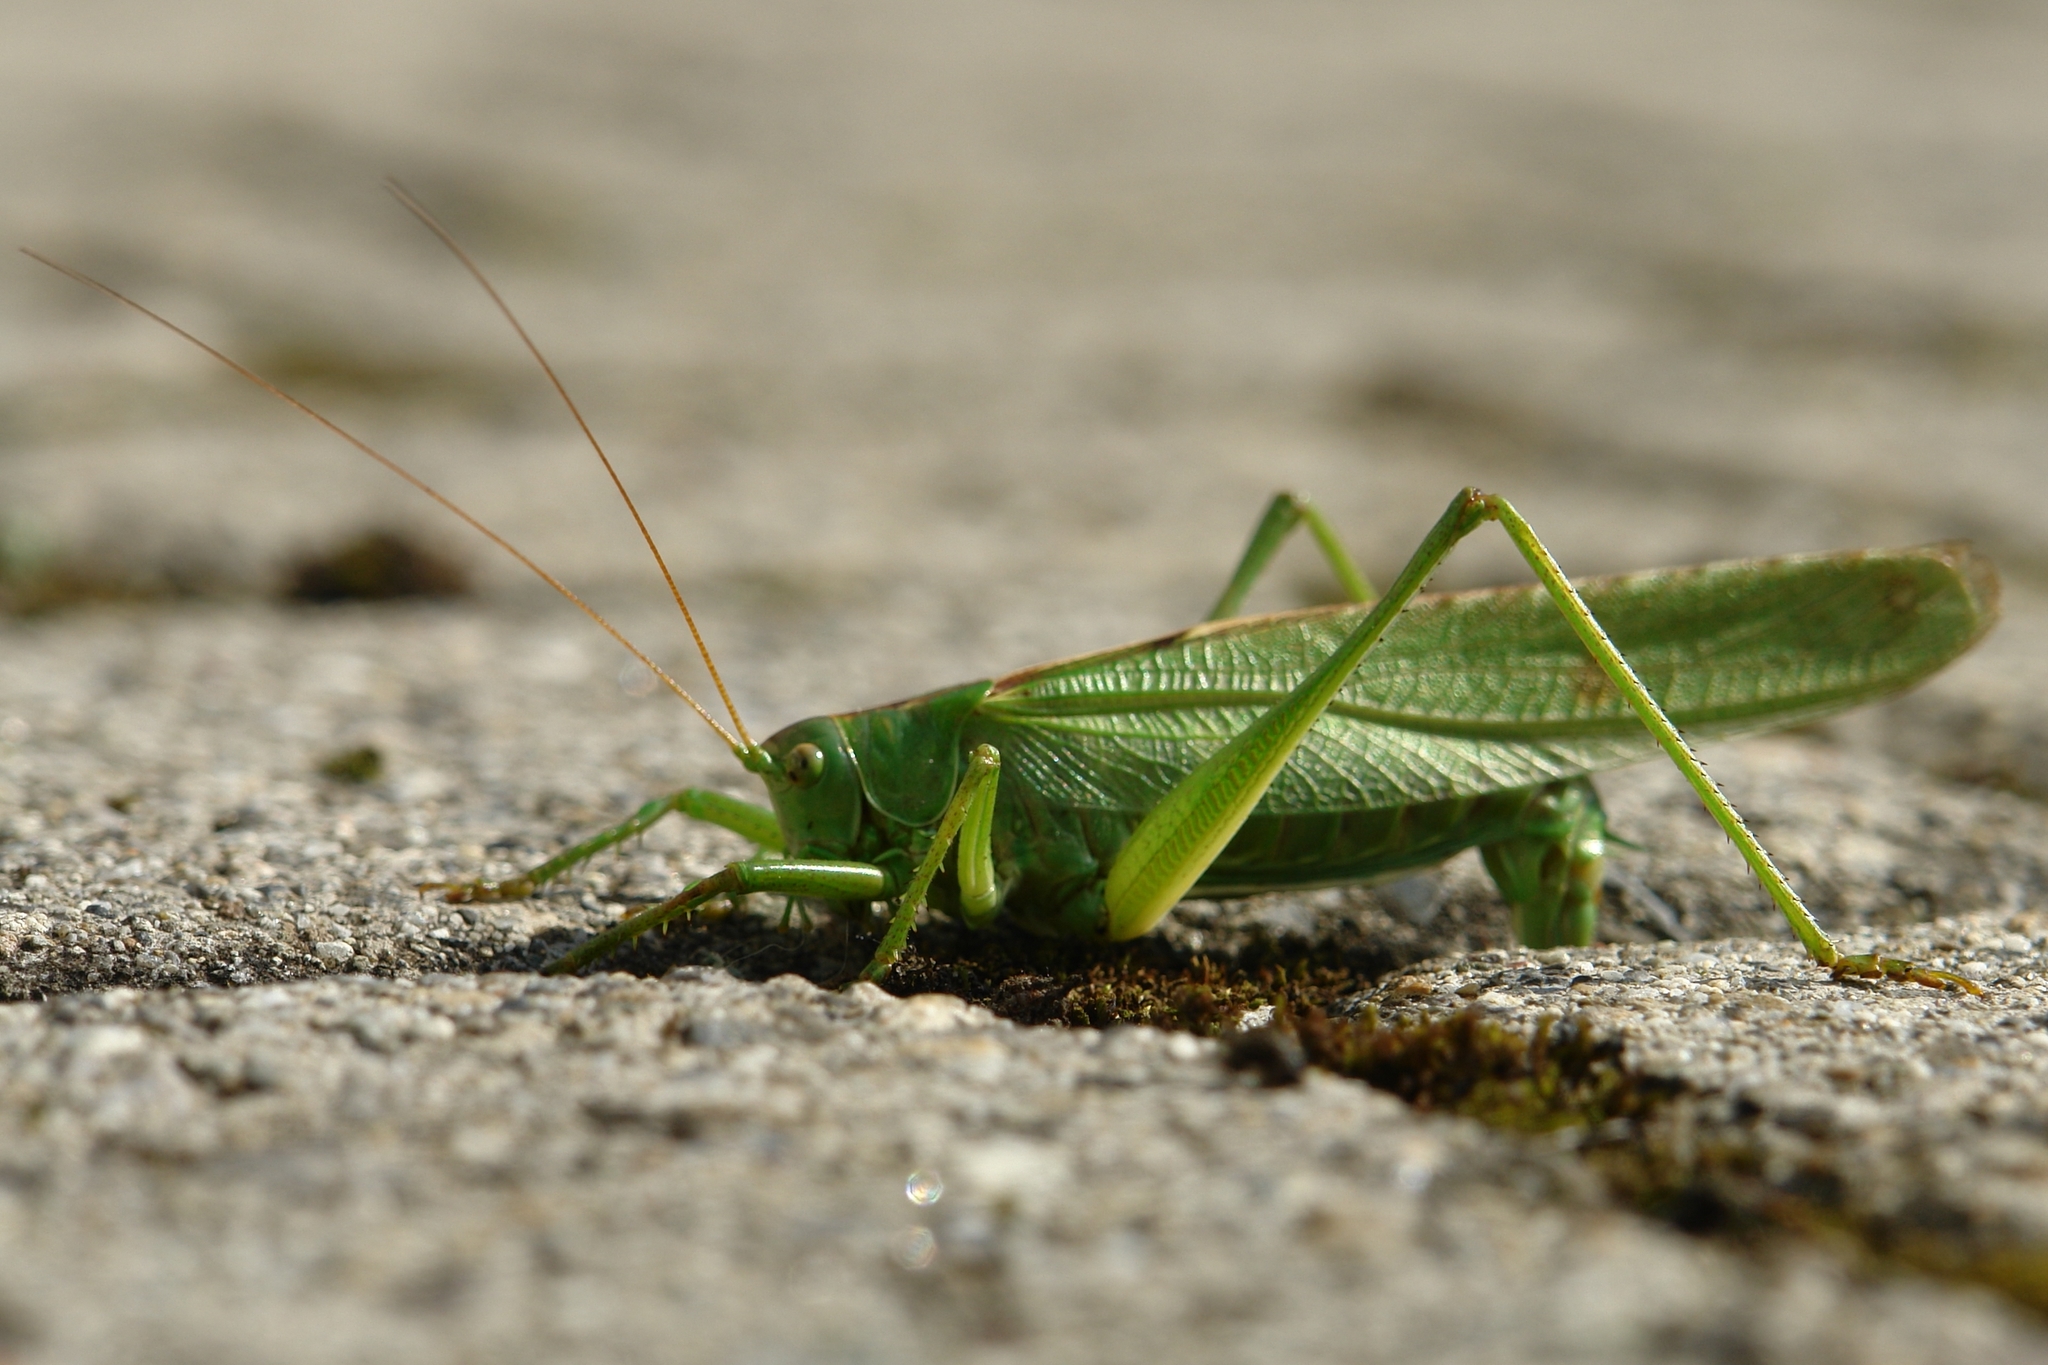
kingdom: Animalia
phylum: Arthropoda
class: Insecta
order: Orthoptera
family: Tettigoniidae
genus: Tettigonia
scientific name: Tettigonia viridissima
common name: Great green bush-cricket
